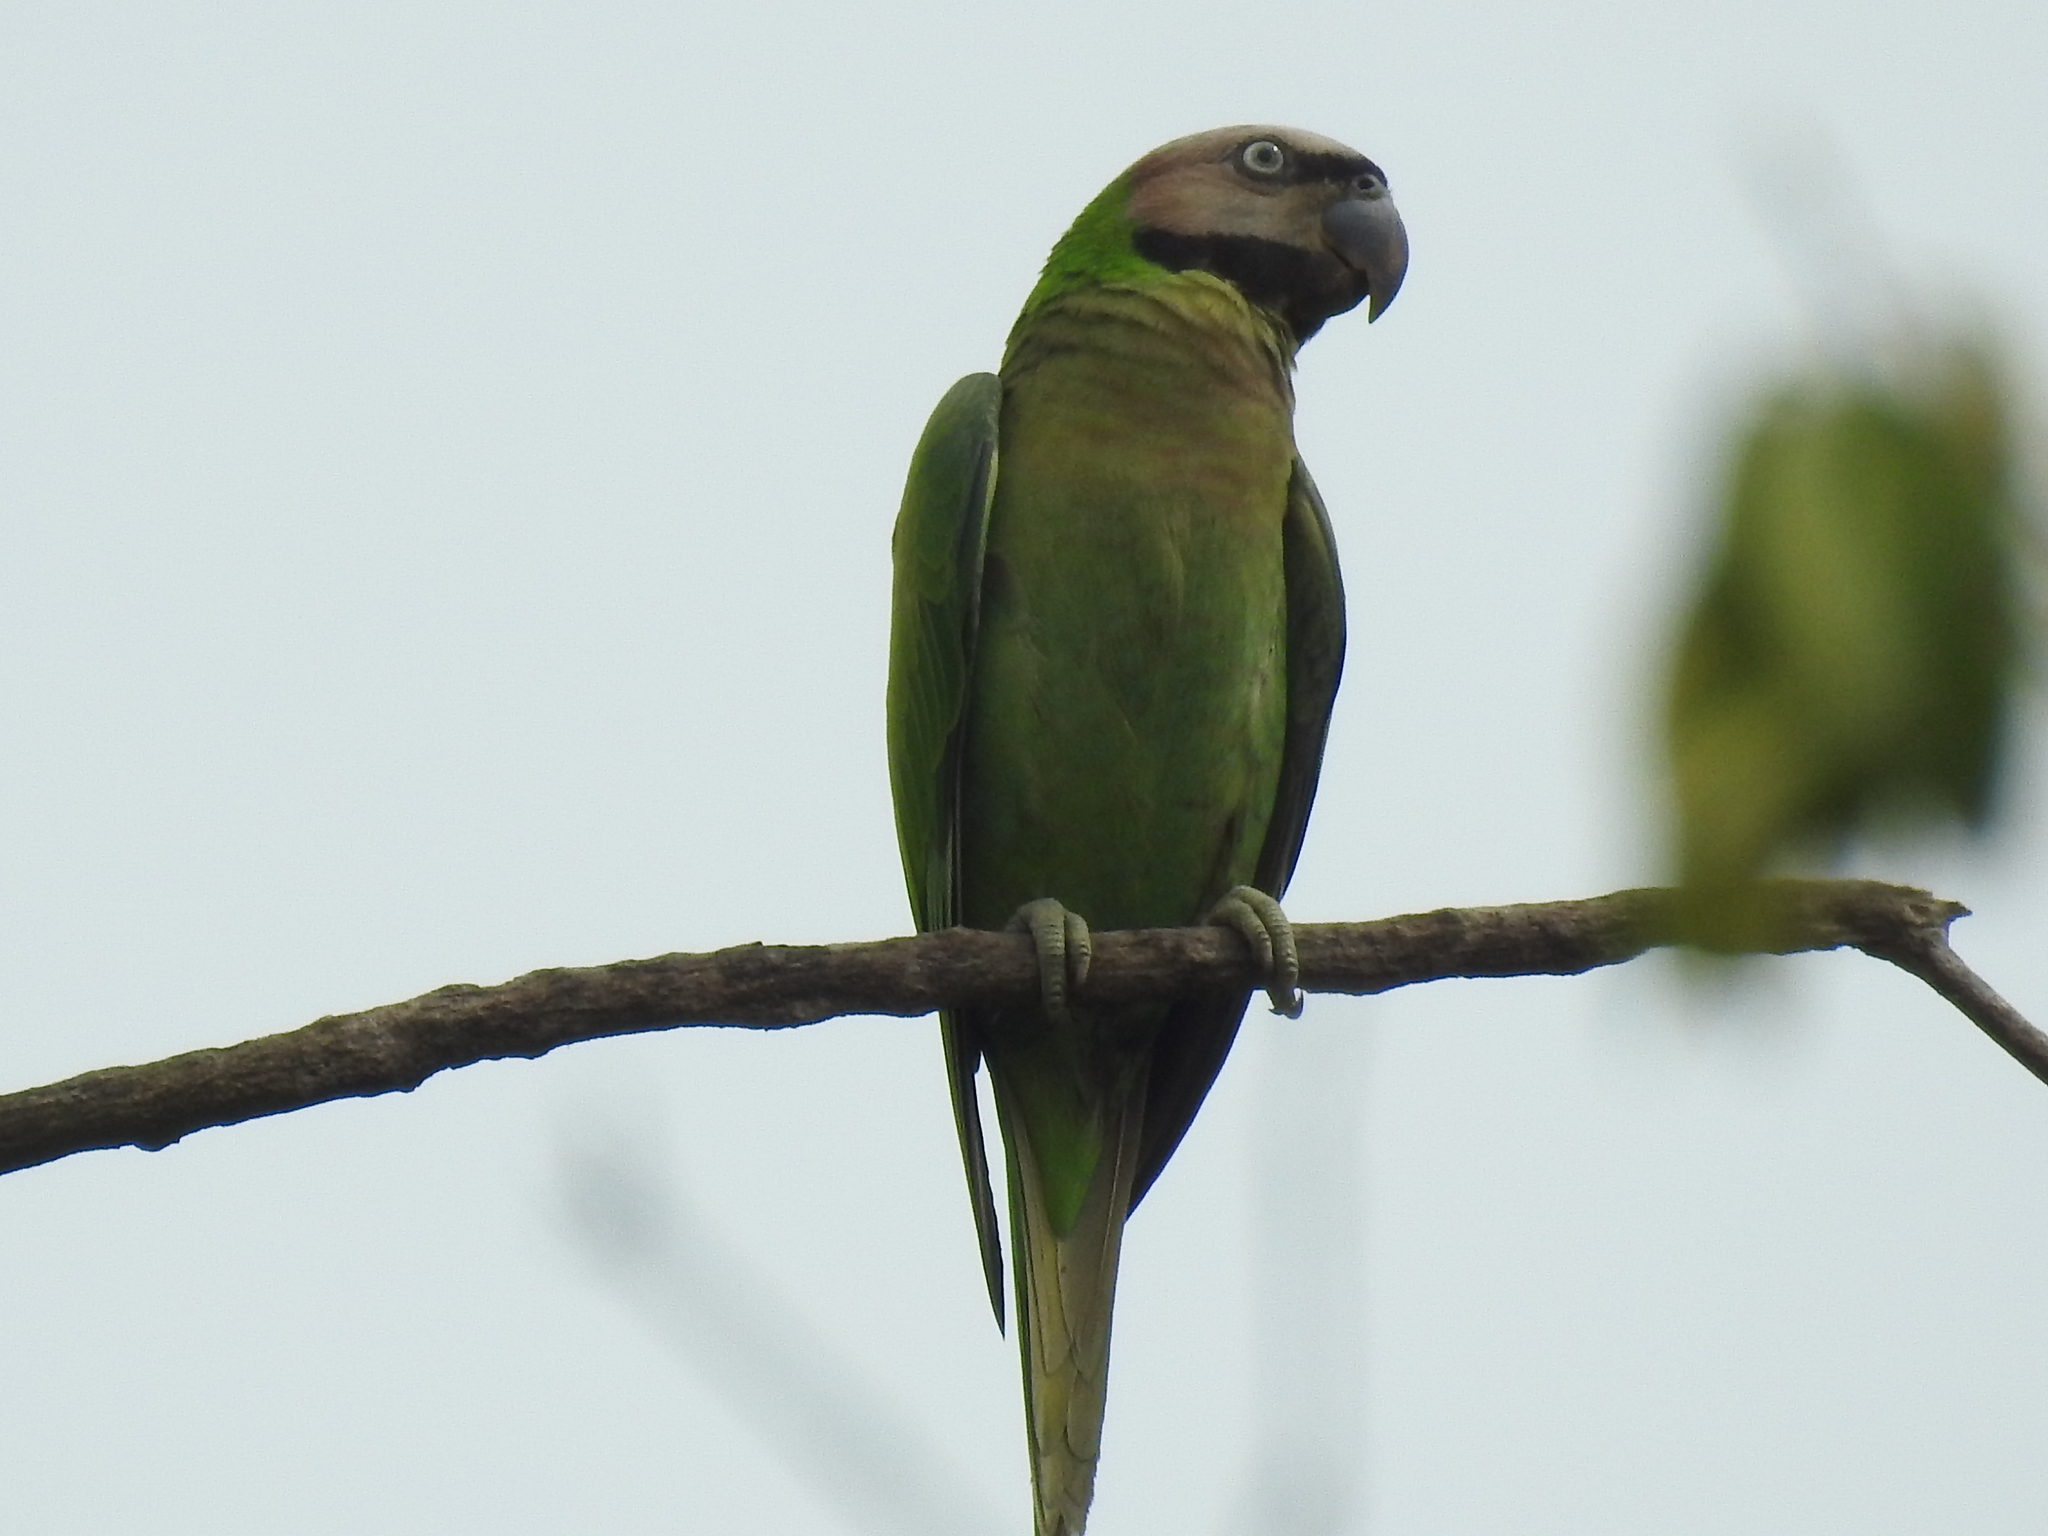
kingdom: Animalia
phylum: Chordata
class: Aves
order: Psittaciformes
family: Psittacidae
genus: Psittacula
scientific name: Psittacula alexandri
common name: Red-breasted parakeet
